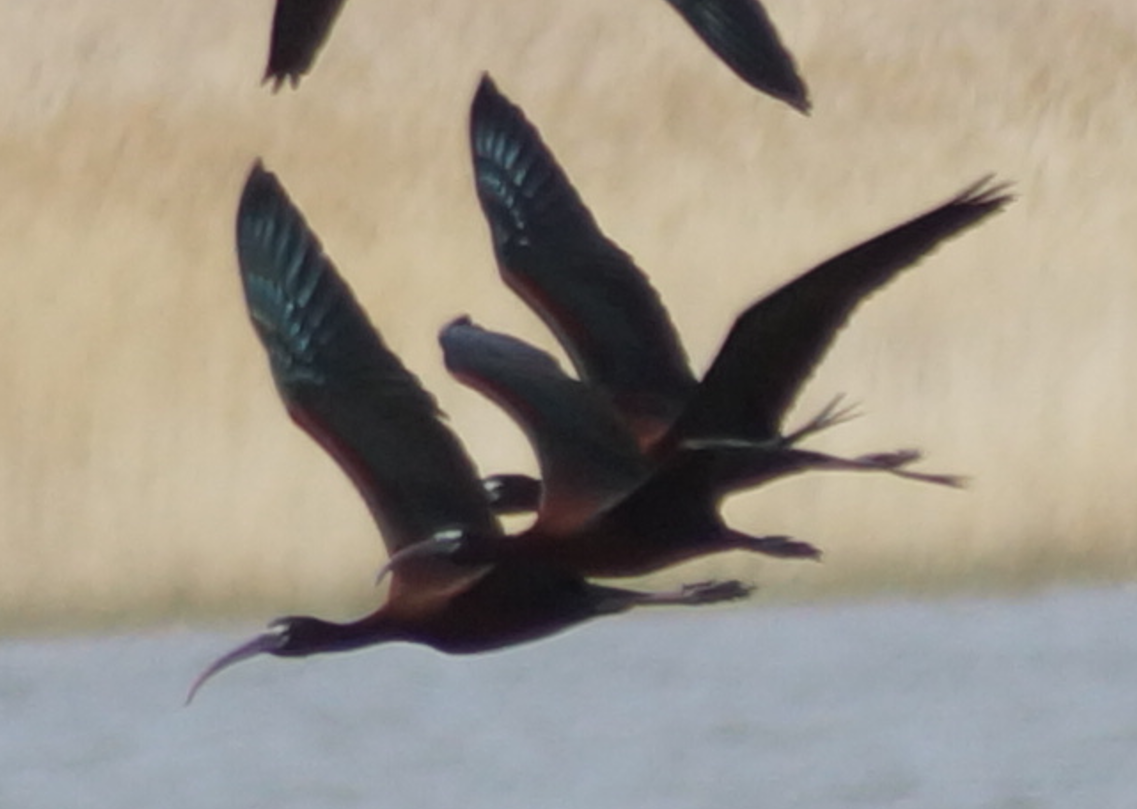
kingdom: Animalia
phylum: Chordata
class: Aves
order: Pelecaniformes
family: Threskiornithidae
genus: Plegadis
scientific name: Plegadis falcinellus
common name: Glossy ibis
